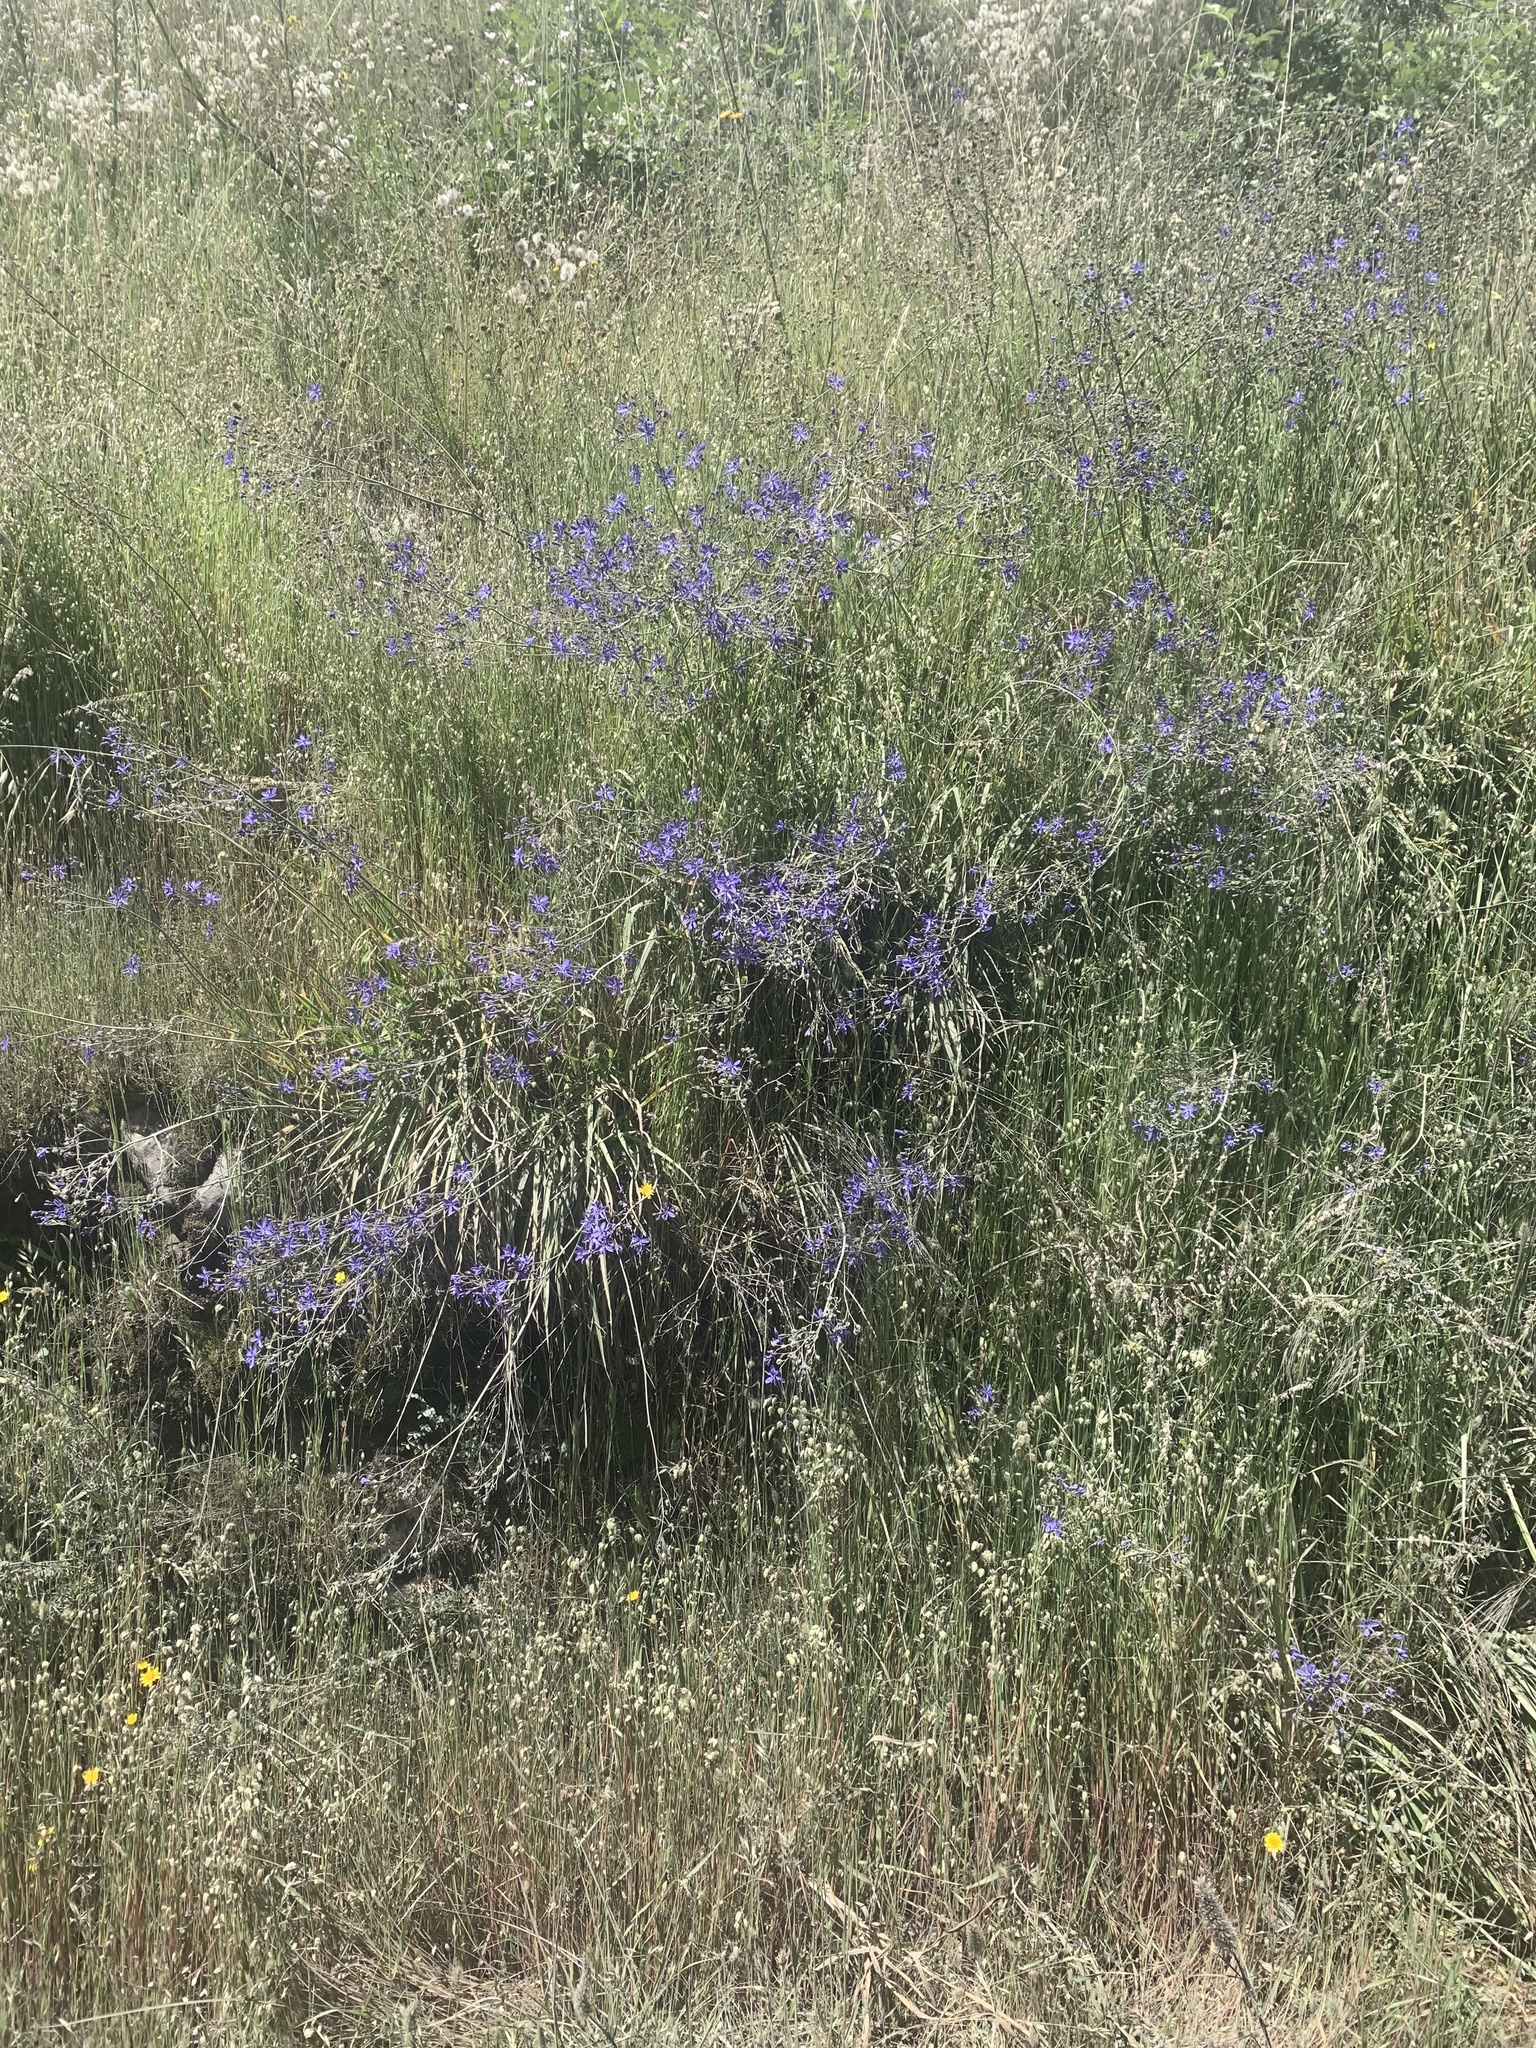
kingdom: Plantae
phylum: Tracheophyta
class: Liliopsida
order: Asparagales
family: Asphodelaceae
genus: Pasithea
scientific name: Pasithea caerulea
